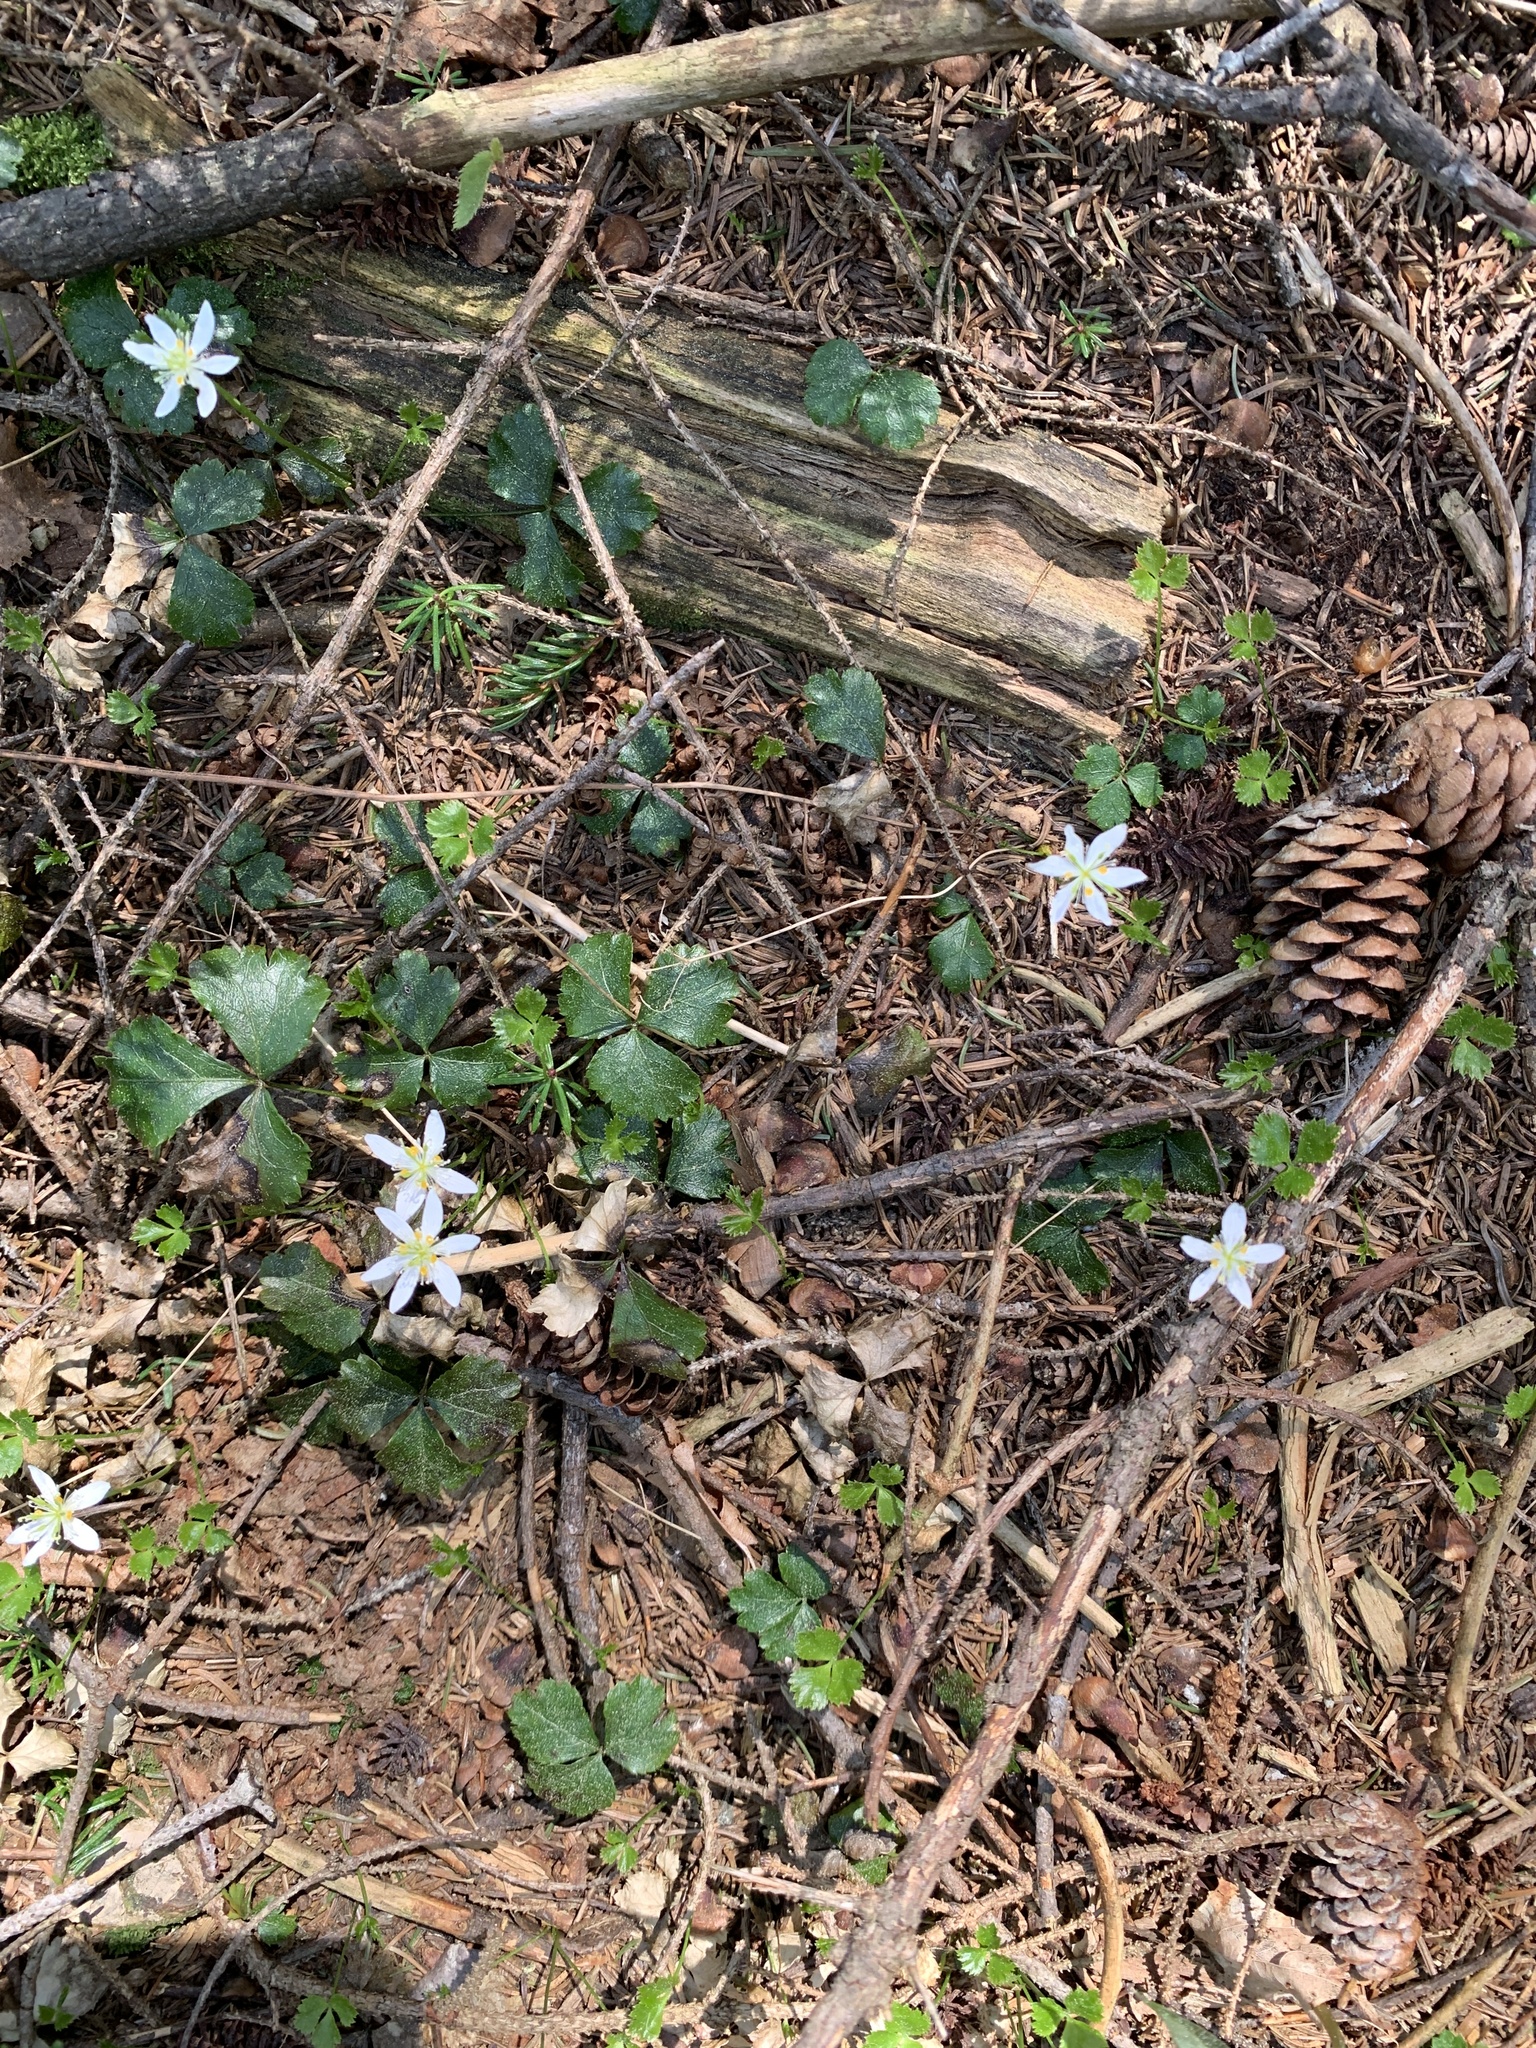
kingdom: Plantae
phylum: Tracheophyta
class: Magnoliopsida
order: Ranunculales
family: Ranunculaceae
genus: Coptis
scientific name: Coptis trifolia
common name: Canker-root
